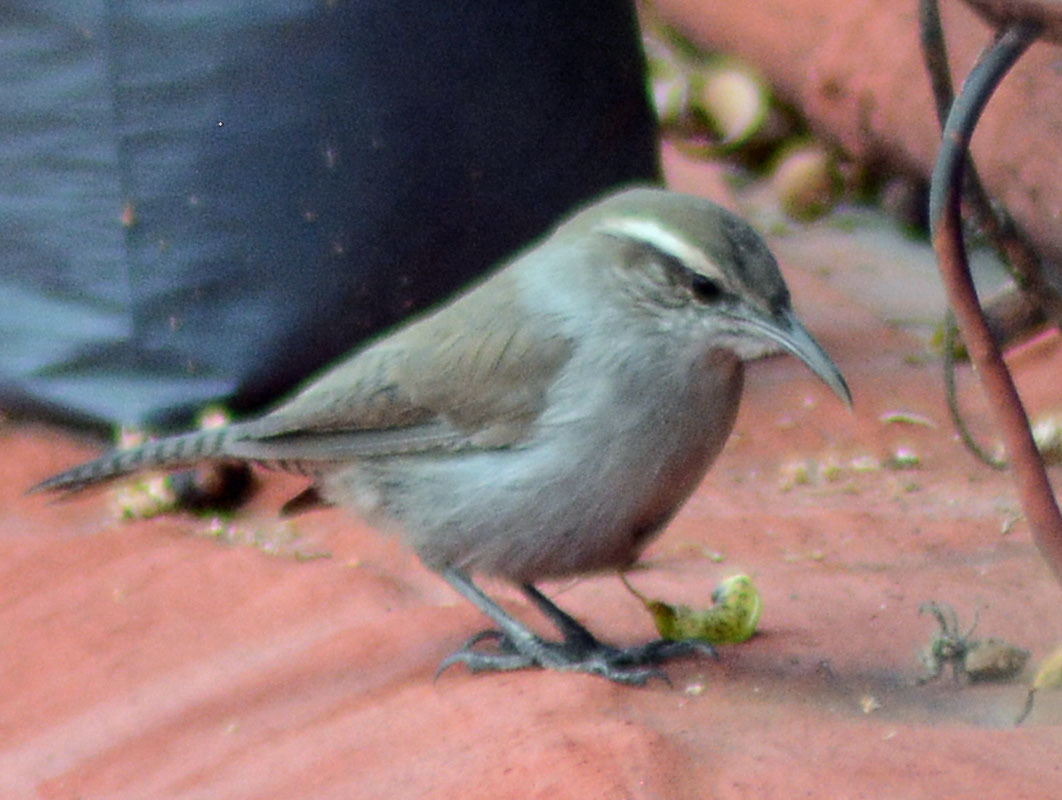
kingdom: Animalia
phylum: Chordata
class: Aves
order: Passeriformes
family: Troglodytidae
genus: Thryomanes
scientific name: Thryomanes bewickii
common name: Bewick's wren
